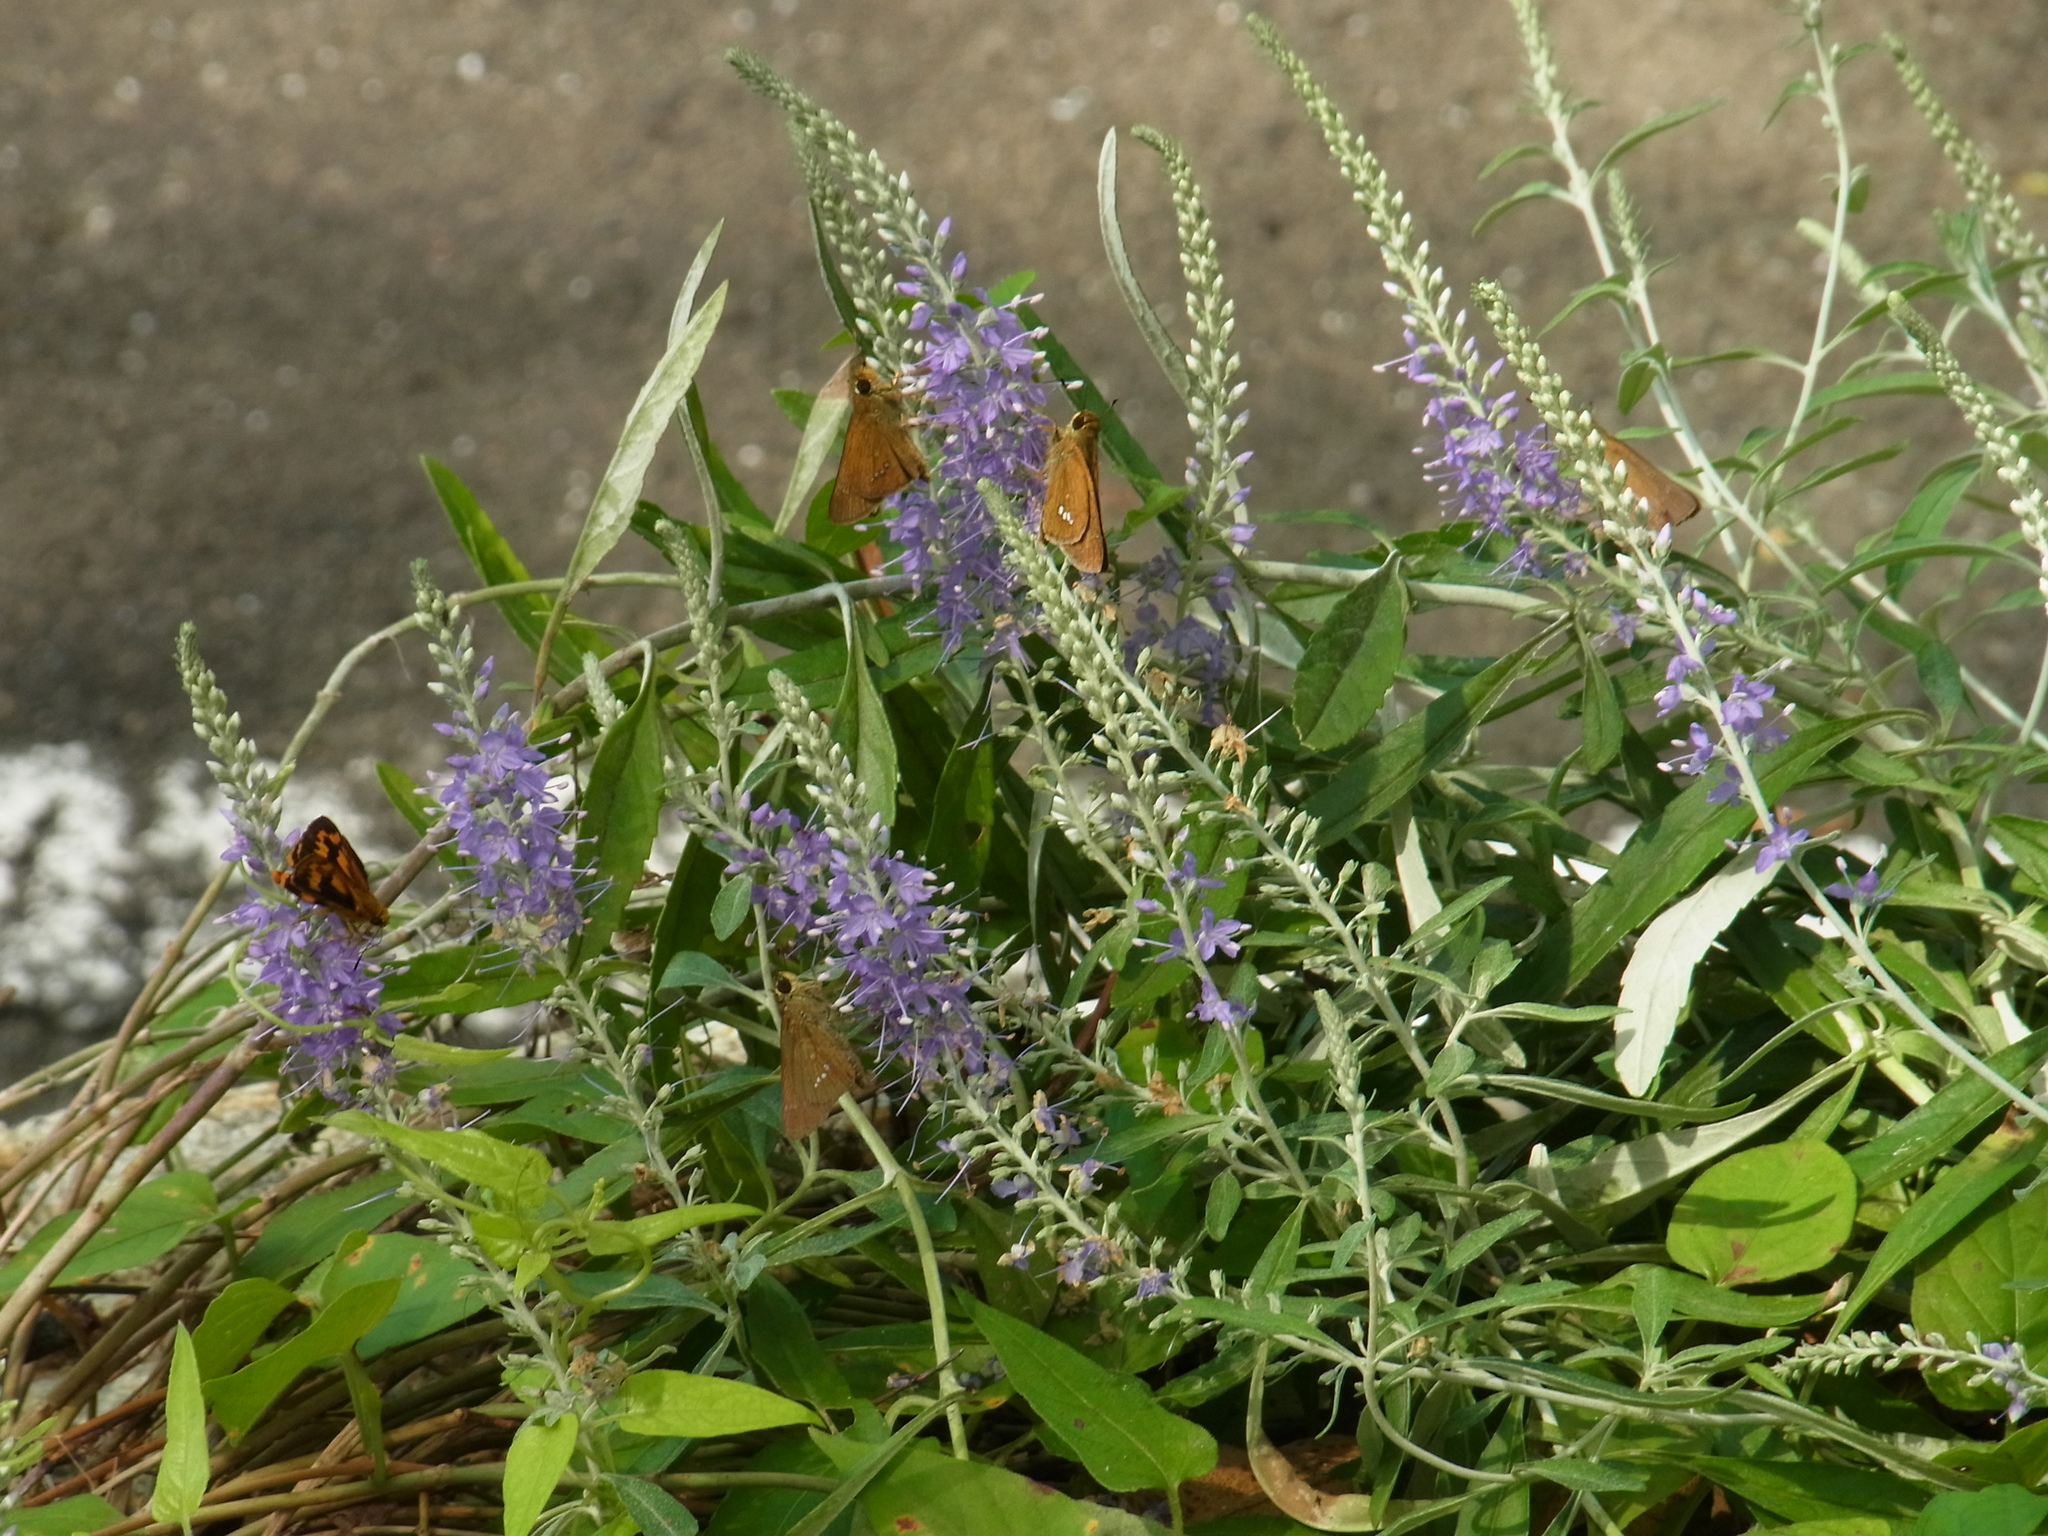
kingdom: Animalia
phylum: Arthropoda
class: Insecta
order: Lepidoptera
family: Hesperiidae
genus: Parnara
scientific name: Parnara guttatus
